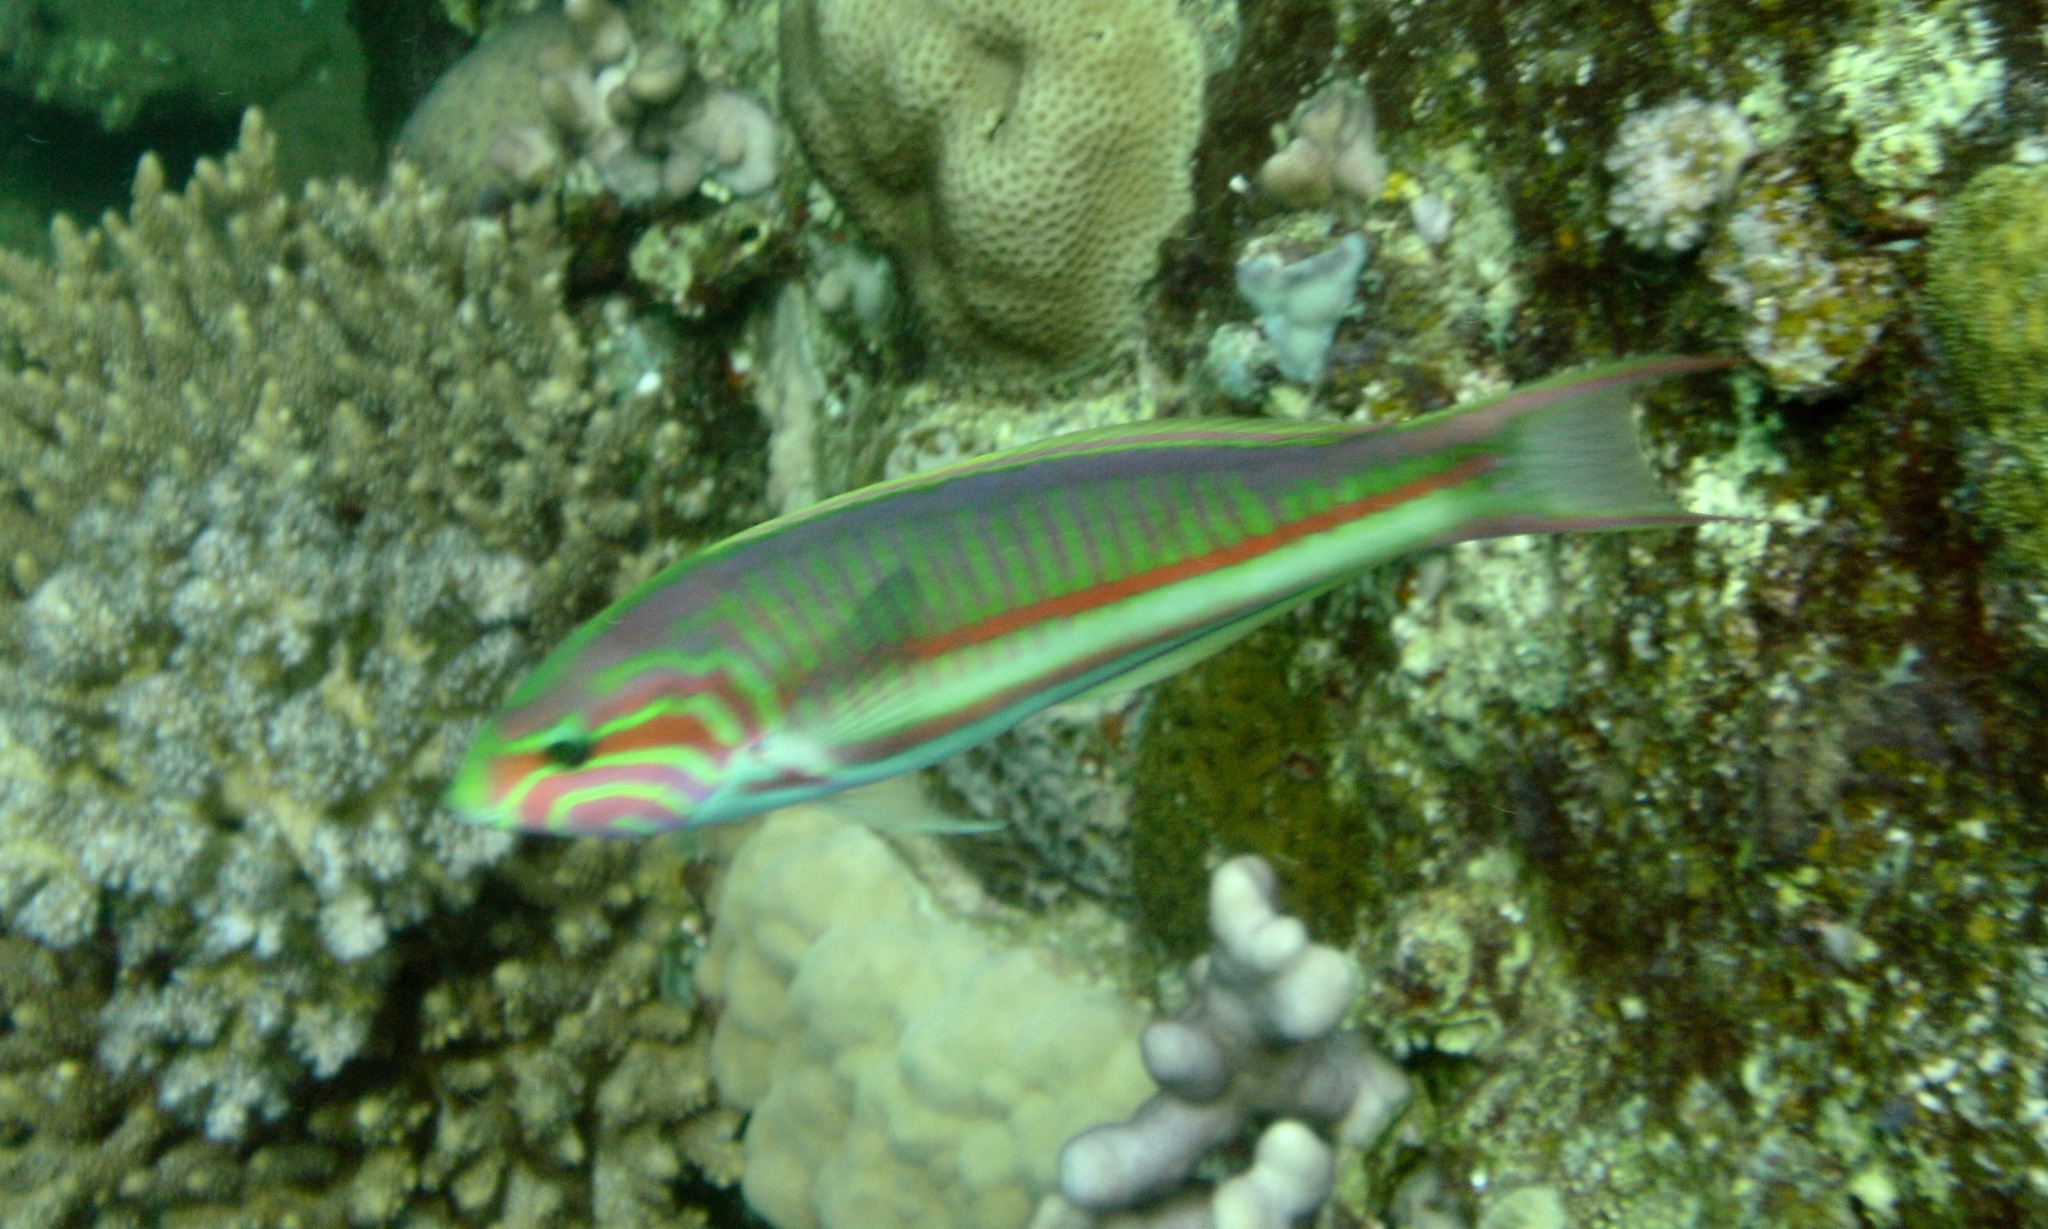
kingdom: Animalia
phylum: Chordata
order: Perciformes
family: Labridae
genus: Thalassoma
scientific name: Thalassoma rueppellii
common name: Klunzinger's wrasse
